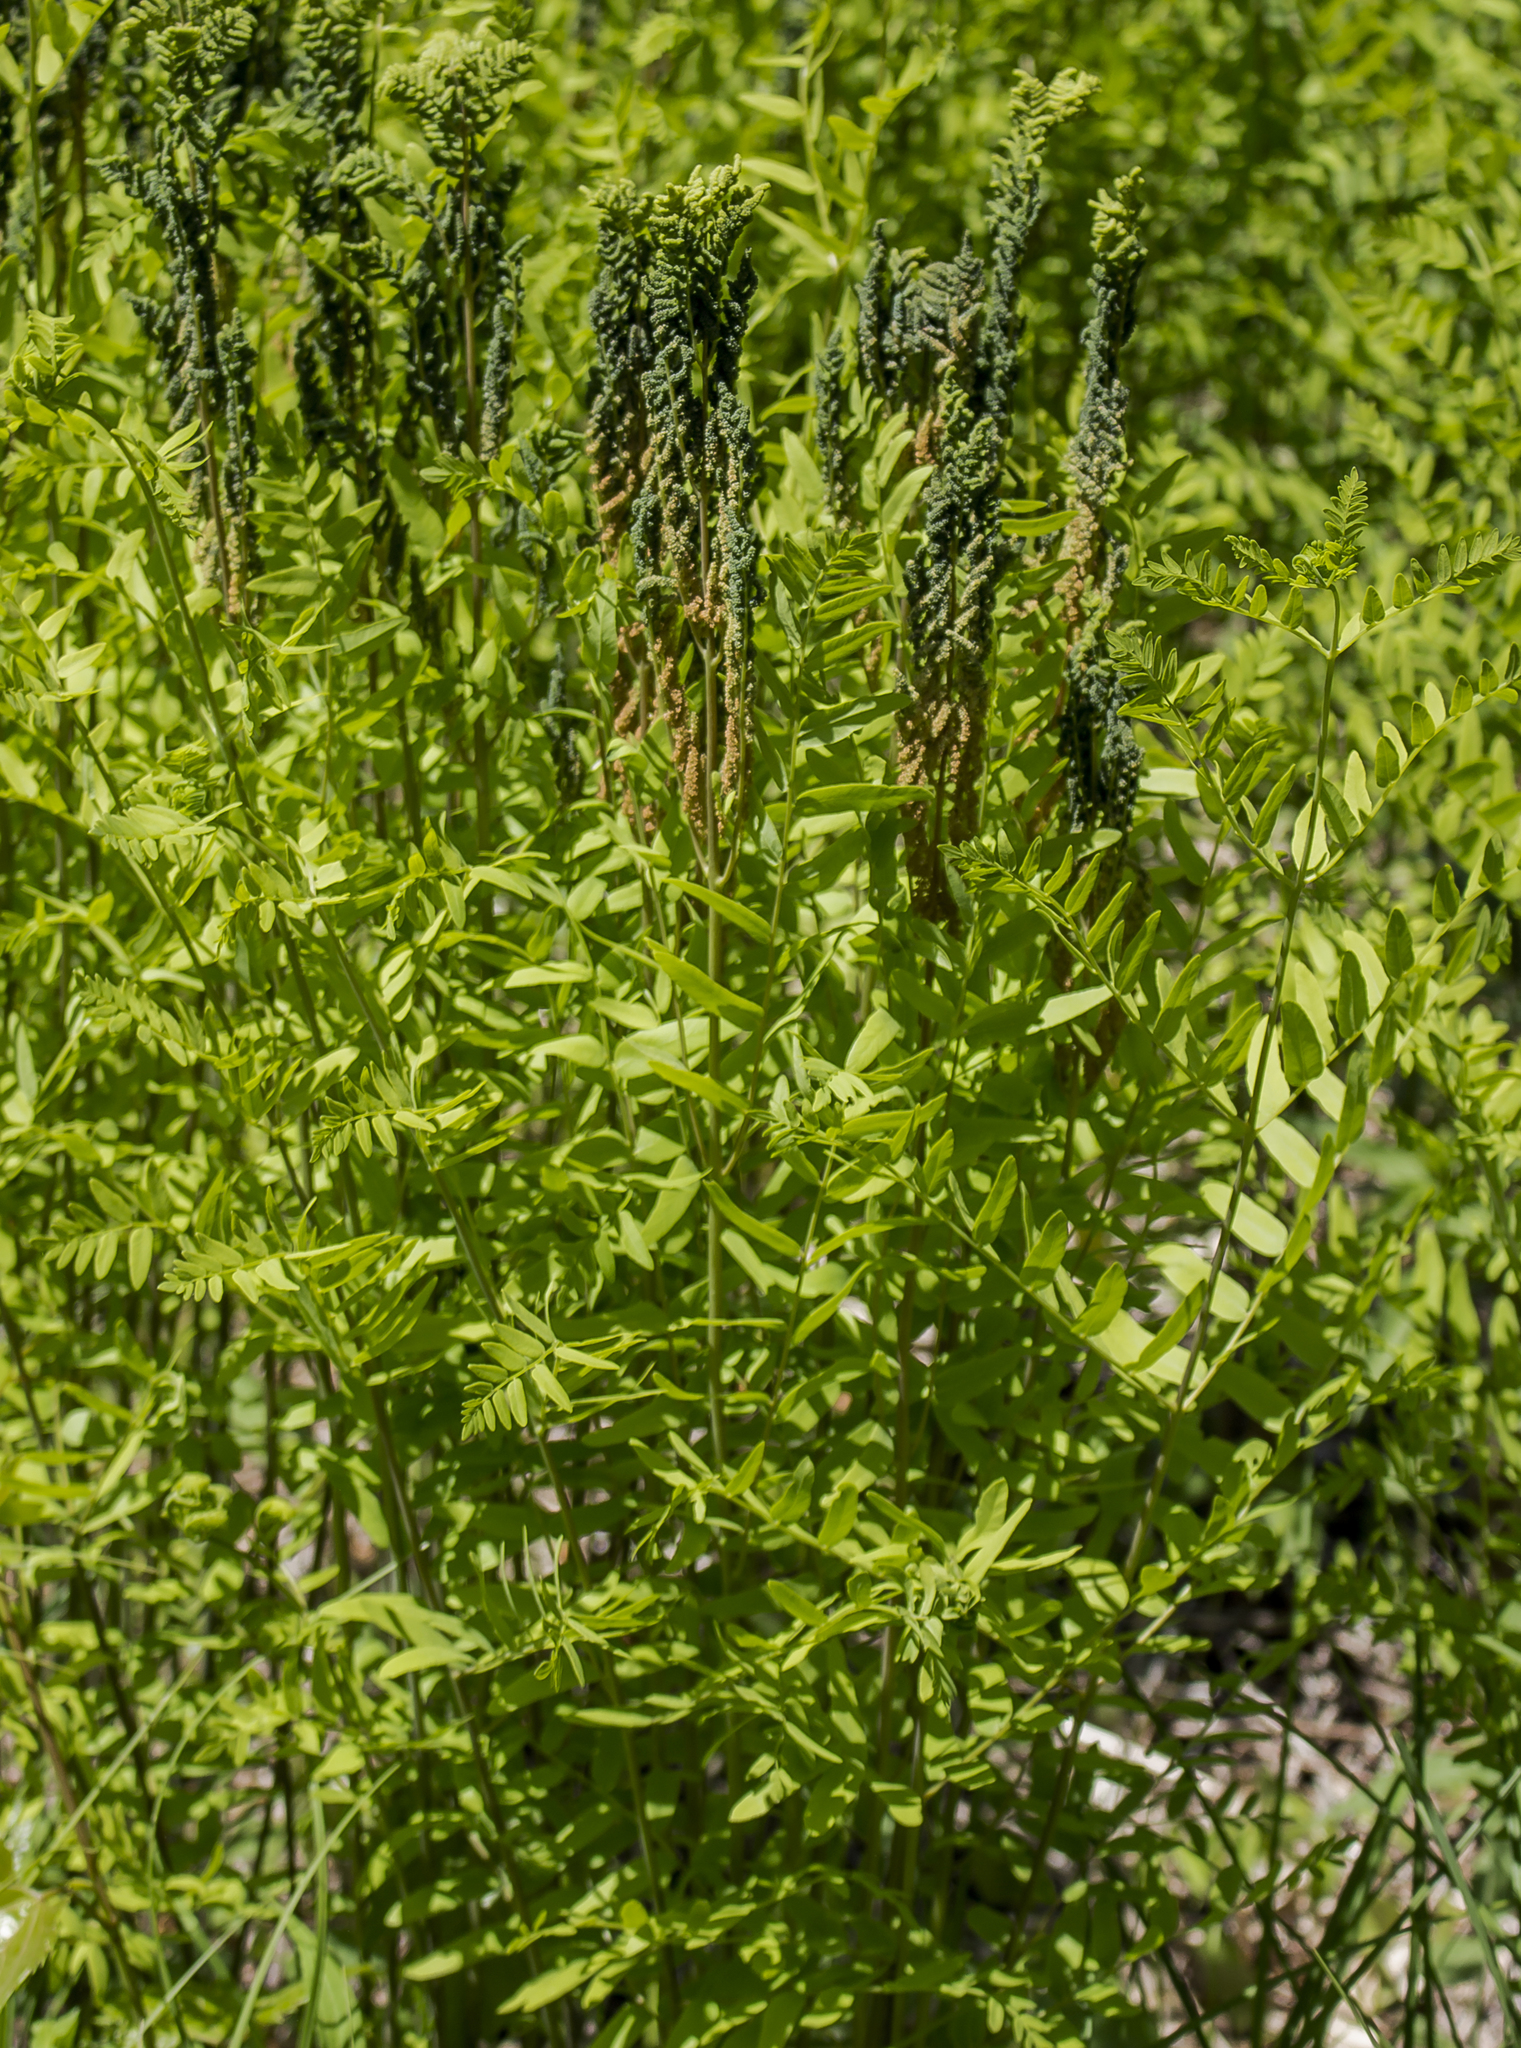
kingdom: Plantae
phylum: Tracheophyta
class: Polypodiopsida
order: Osmundales
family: Osmundaceae
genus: Osmunda
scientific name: Osmunda spectabilis
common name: American royal fern
